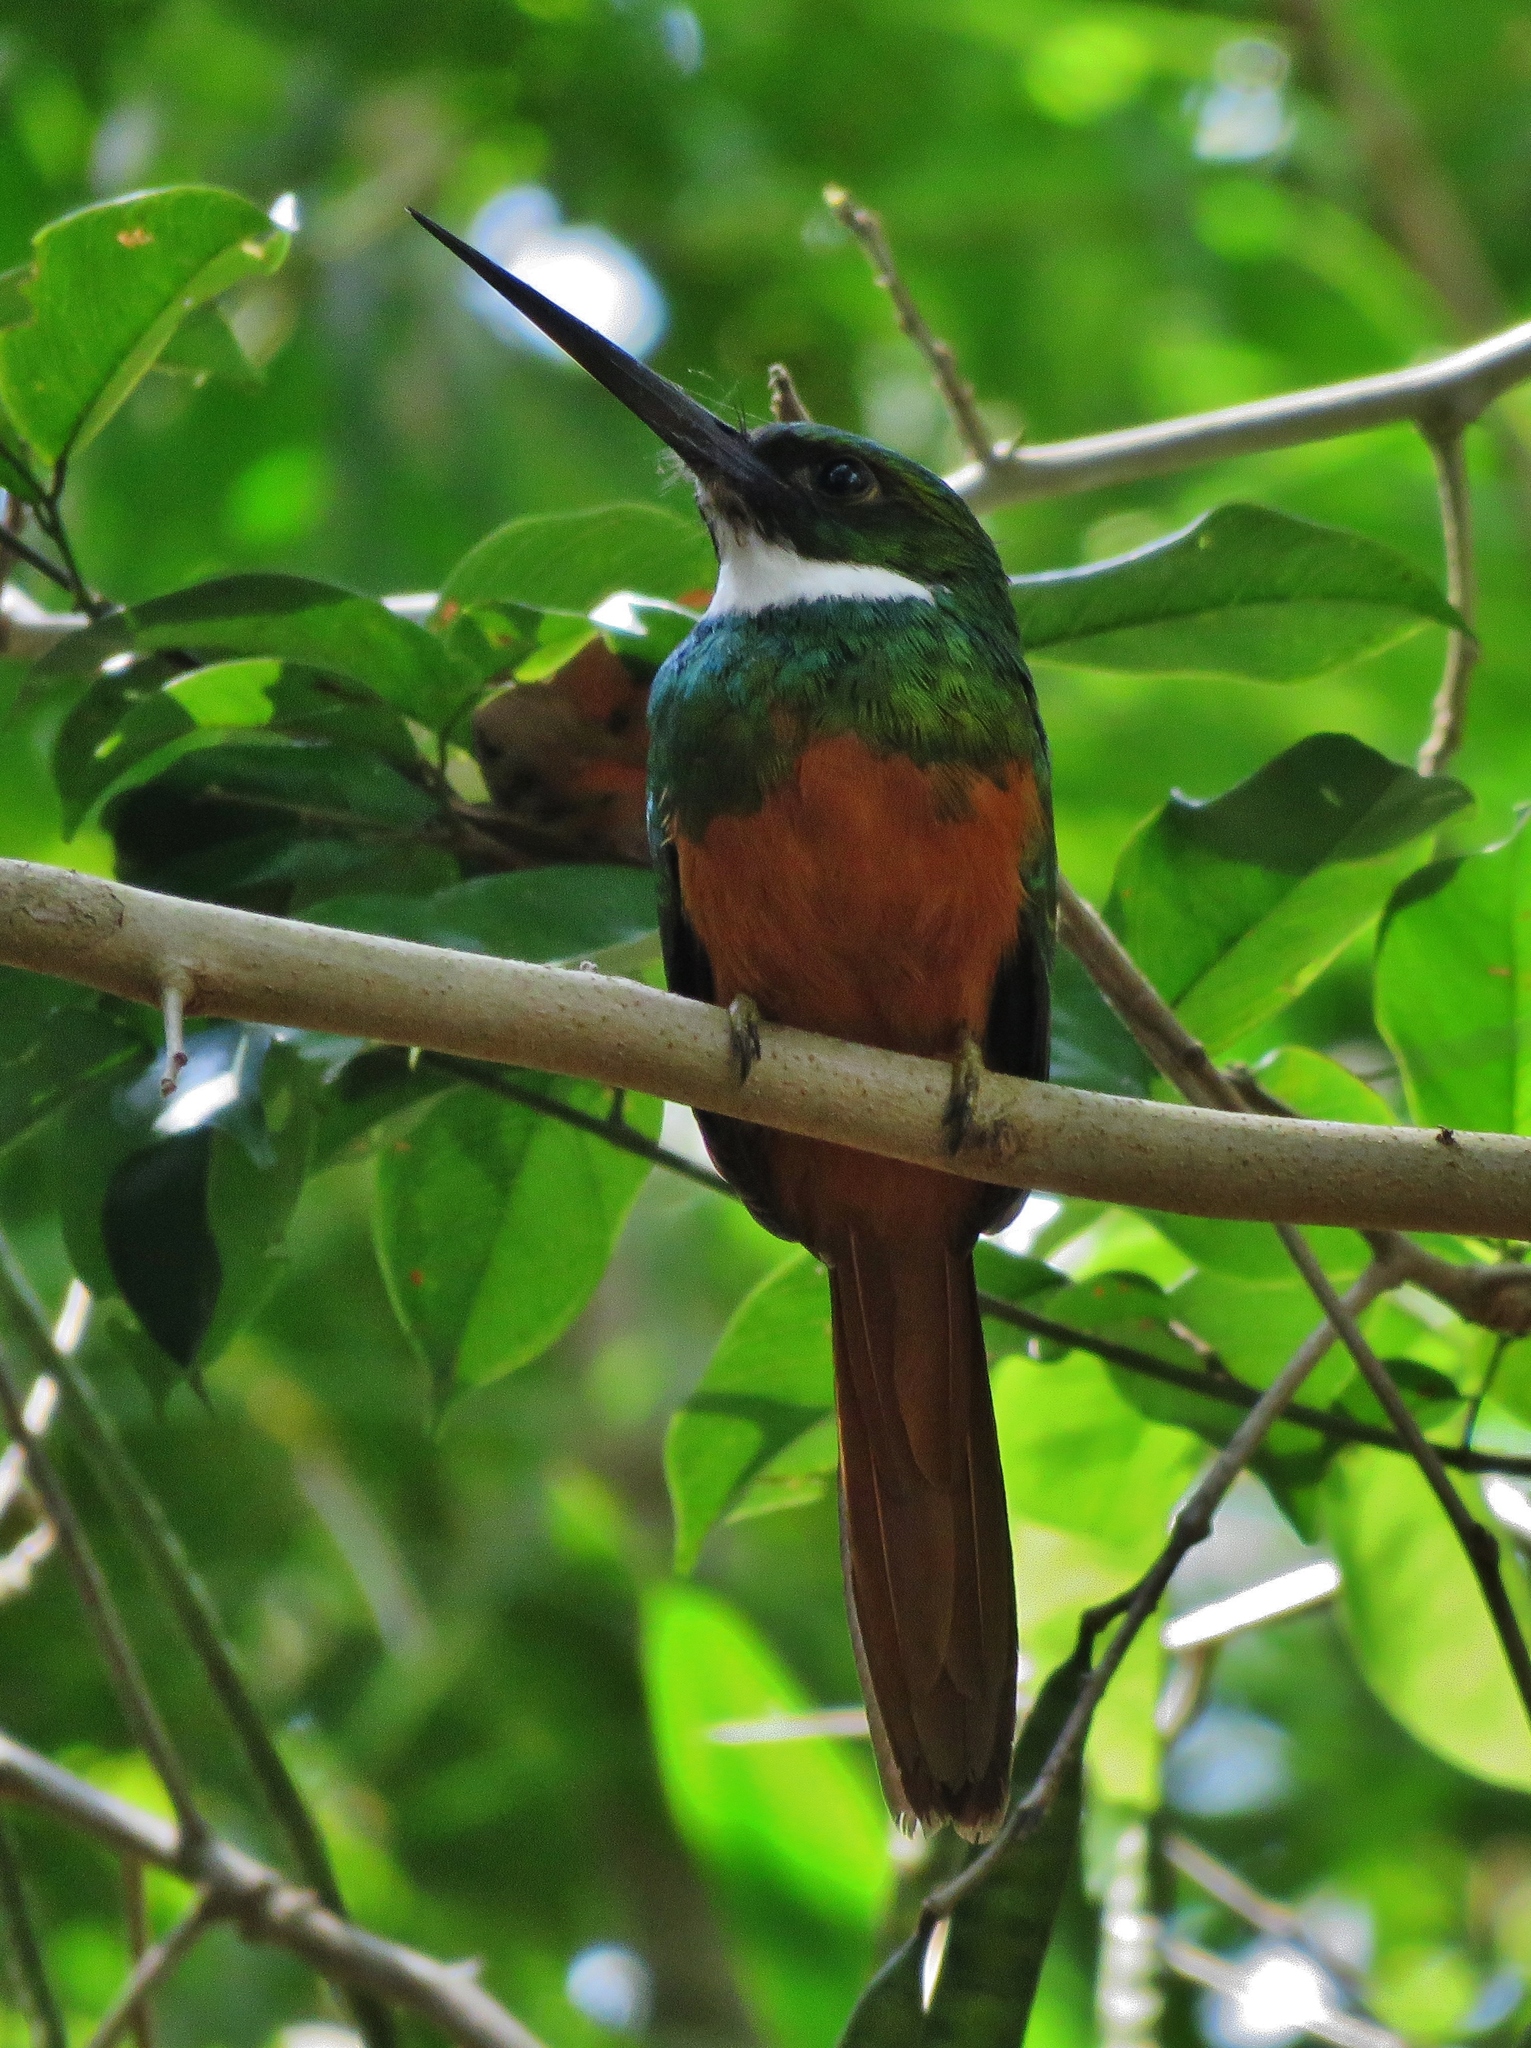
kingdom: Animalia
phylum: Chordata
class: Aves
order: Piciformes
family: Galbulidae
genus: Galbula
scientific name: Galbula ruficauda
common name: Rufous-tailed jacamar
